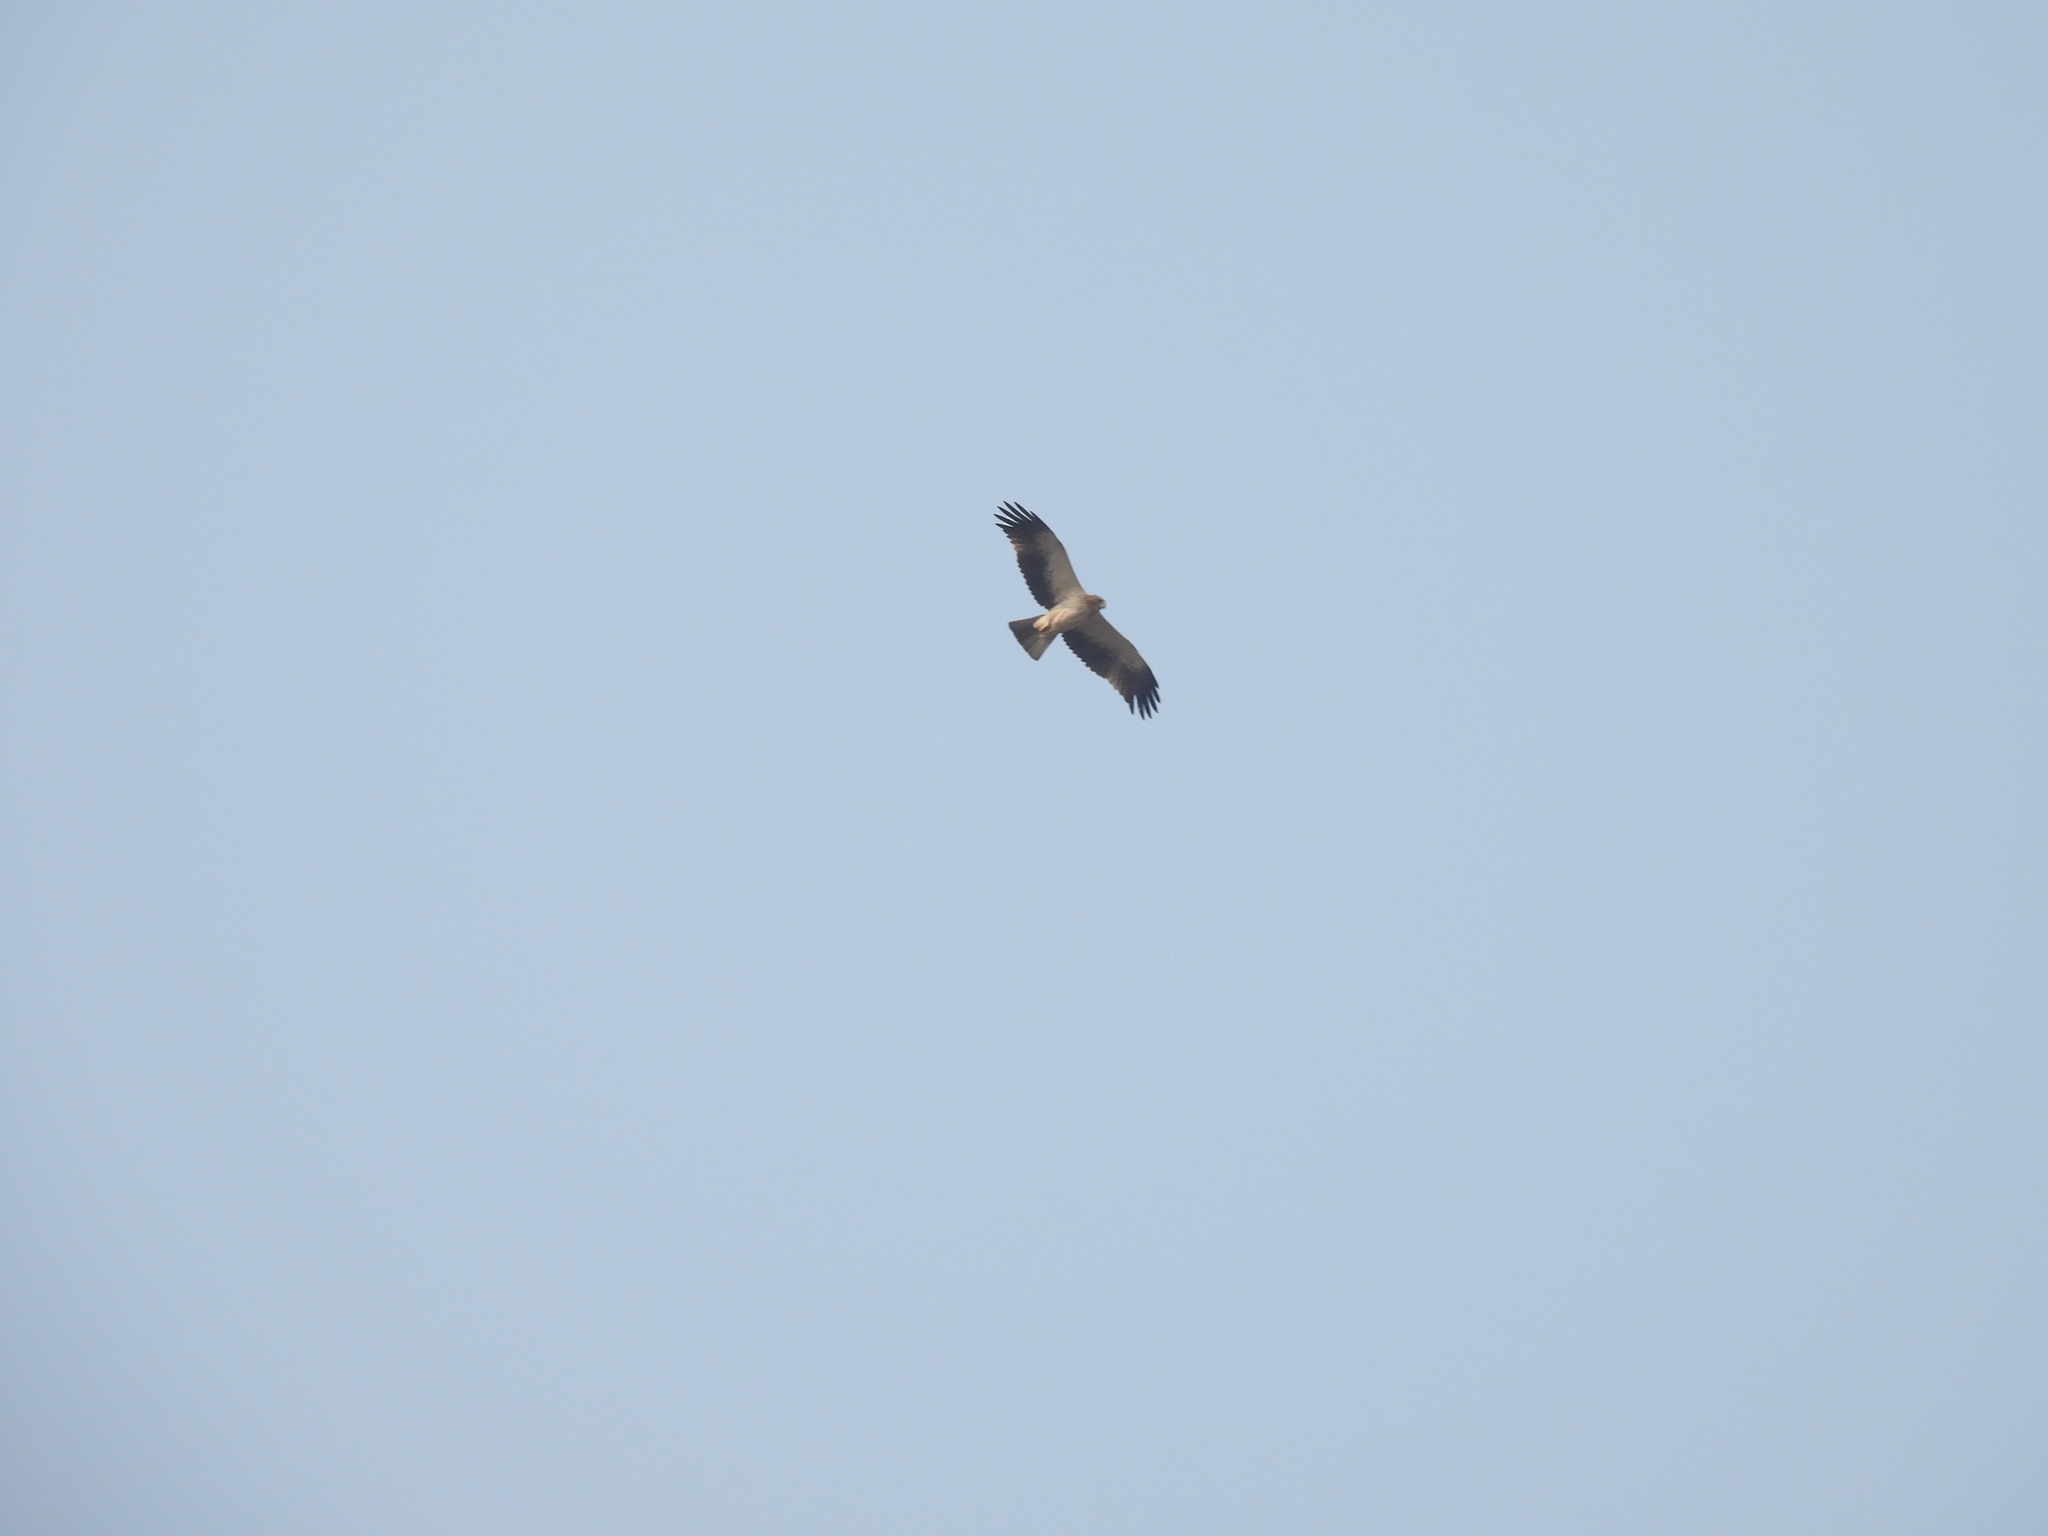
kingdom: Animalia
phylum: Chordata
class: Aves
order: Accipitriformes
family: Accipitridae
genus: Hieraaetus
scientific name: Hieraaetus pennatus
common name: Booted eagle
